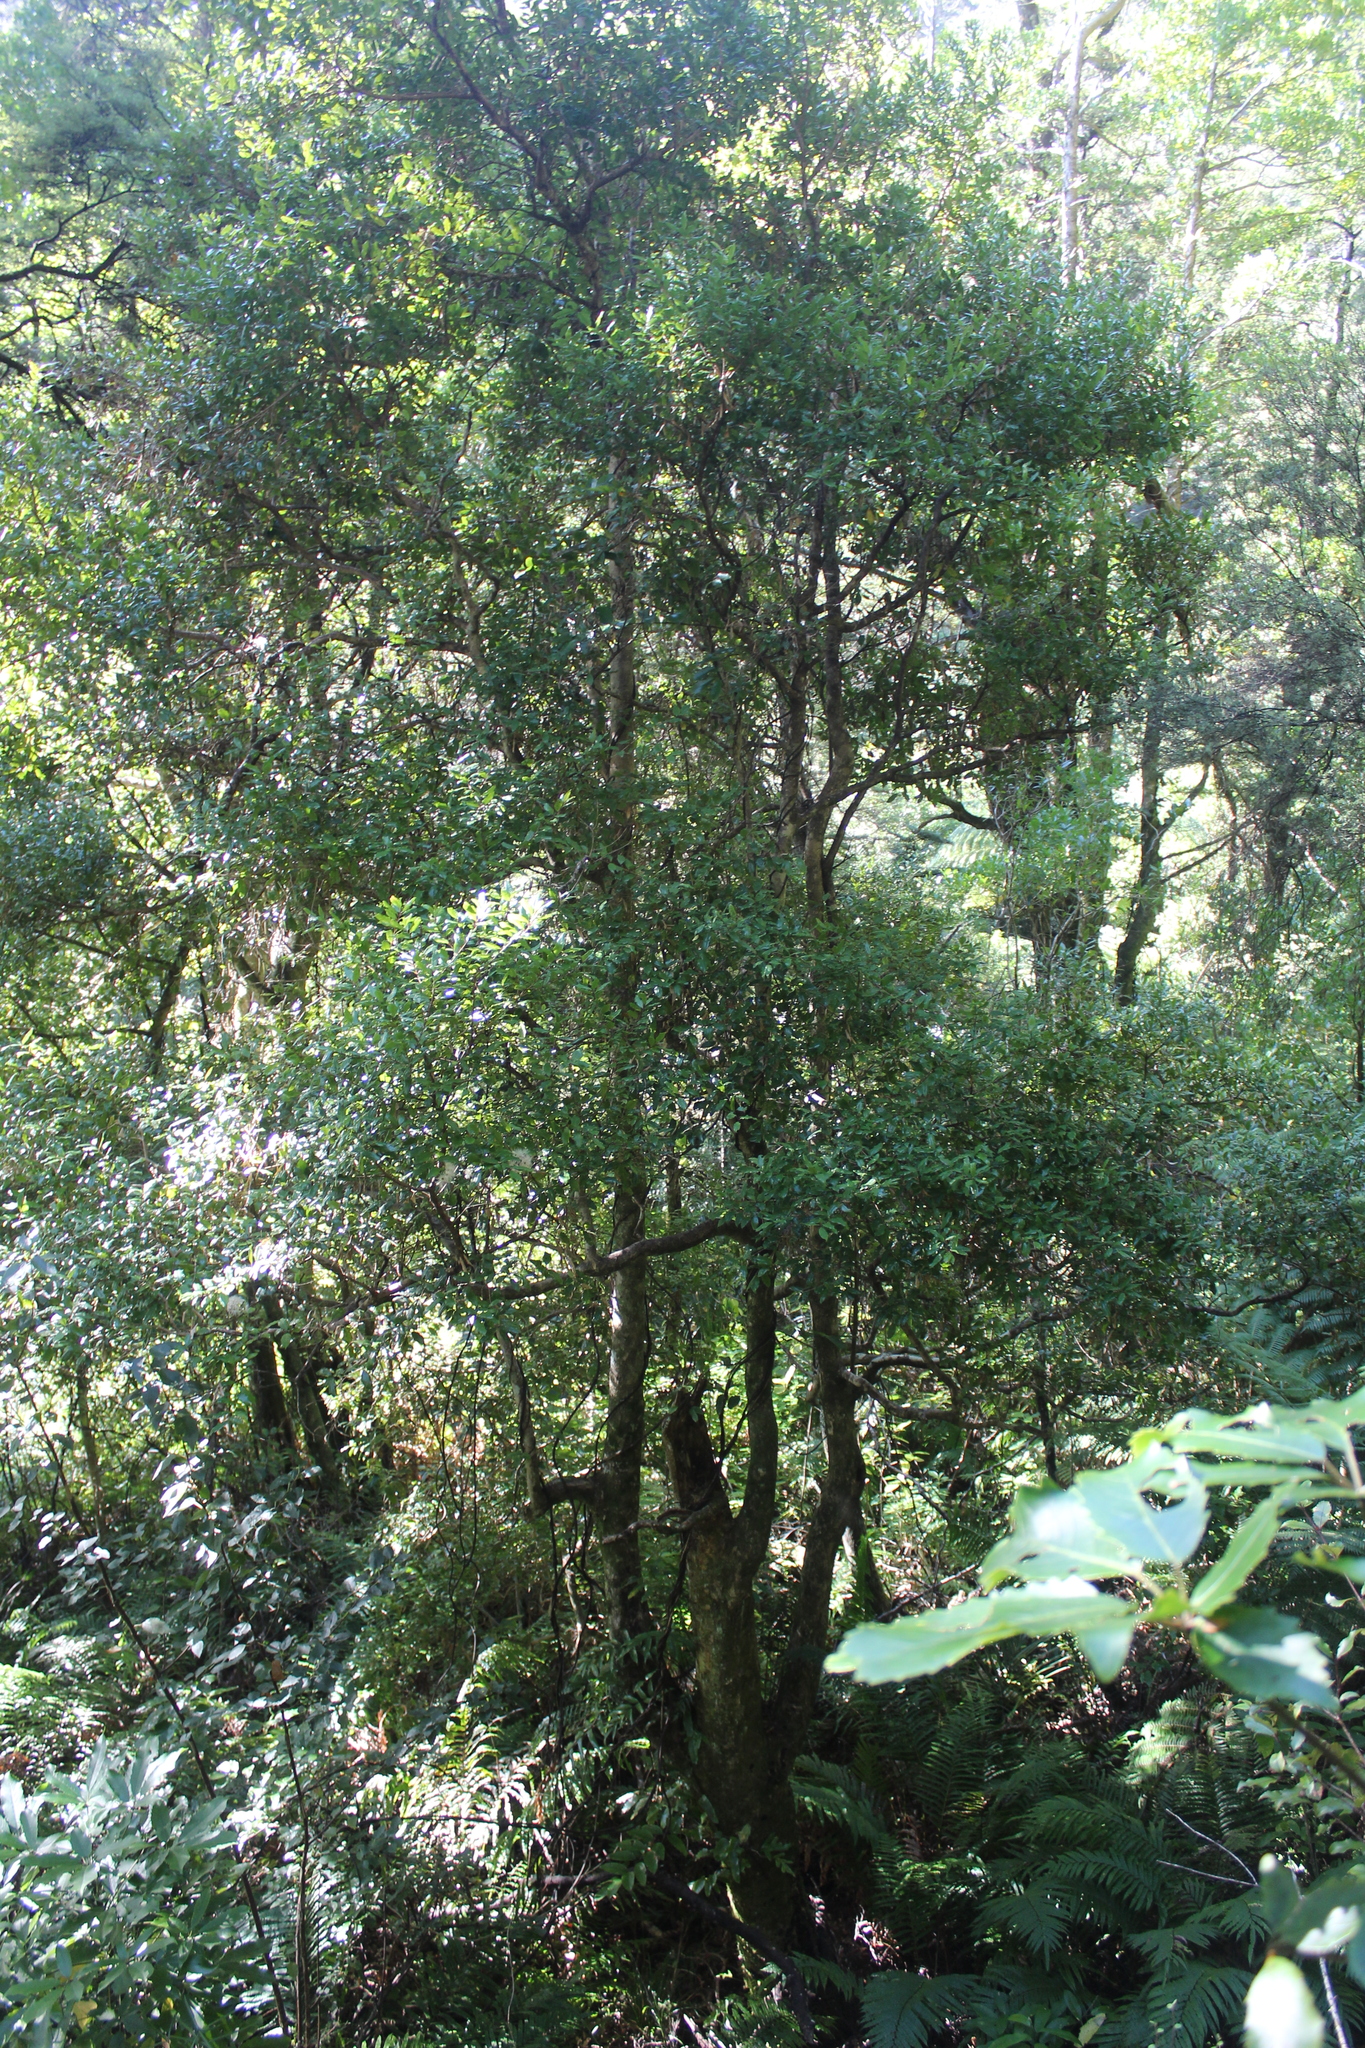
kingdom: Plantae
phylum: Tracheophyta
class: Magnoliopsida
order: Myrtales
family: Myrtaceae
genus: Syzygium
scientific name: Syzygium maire
